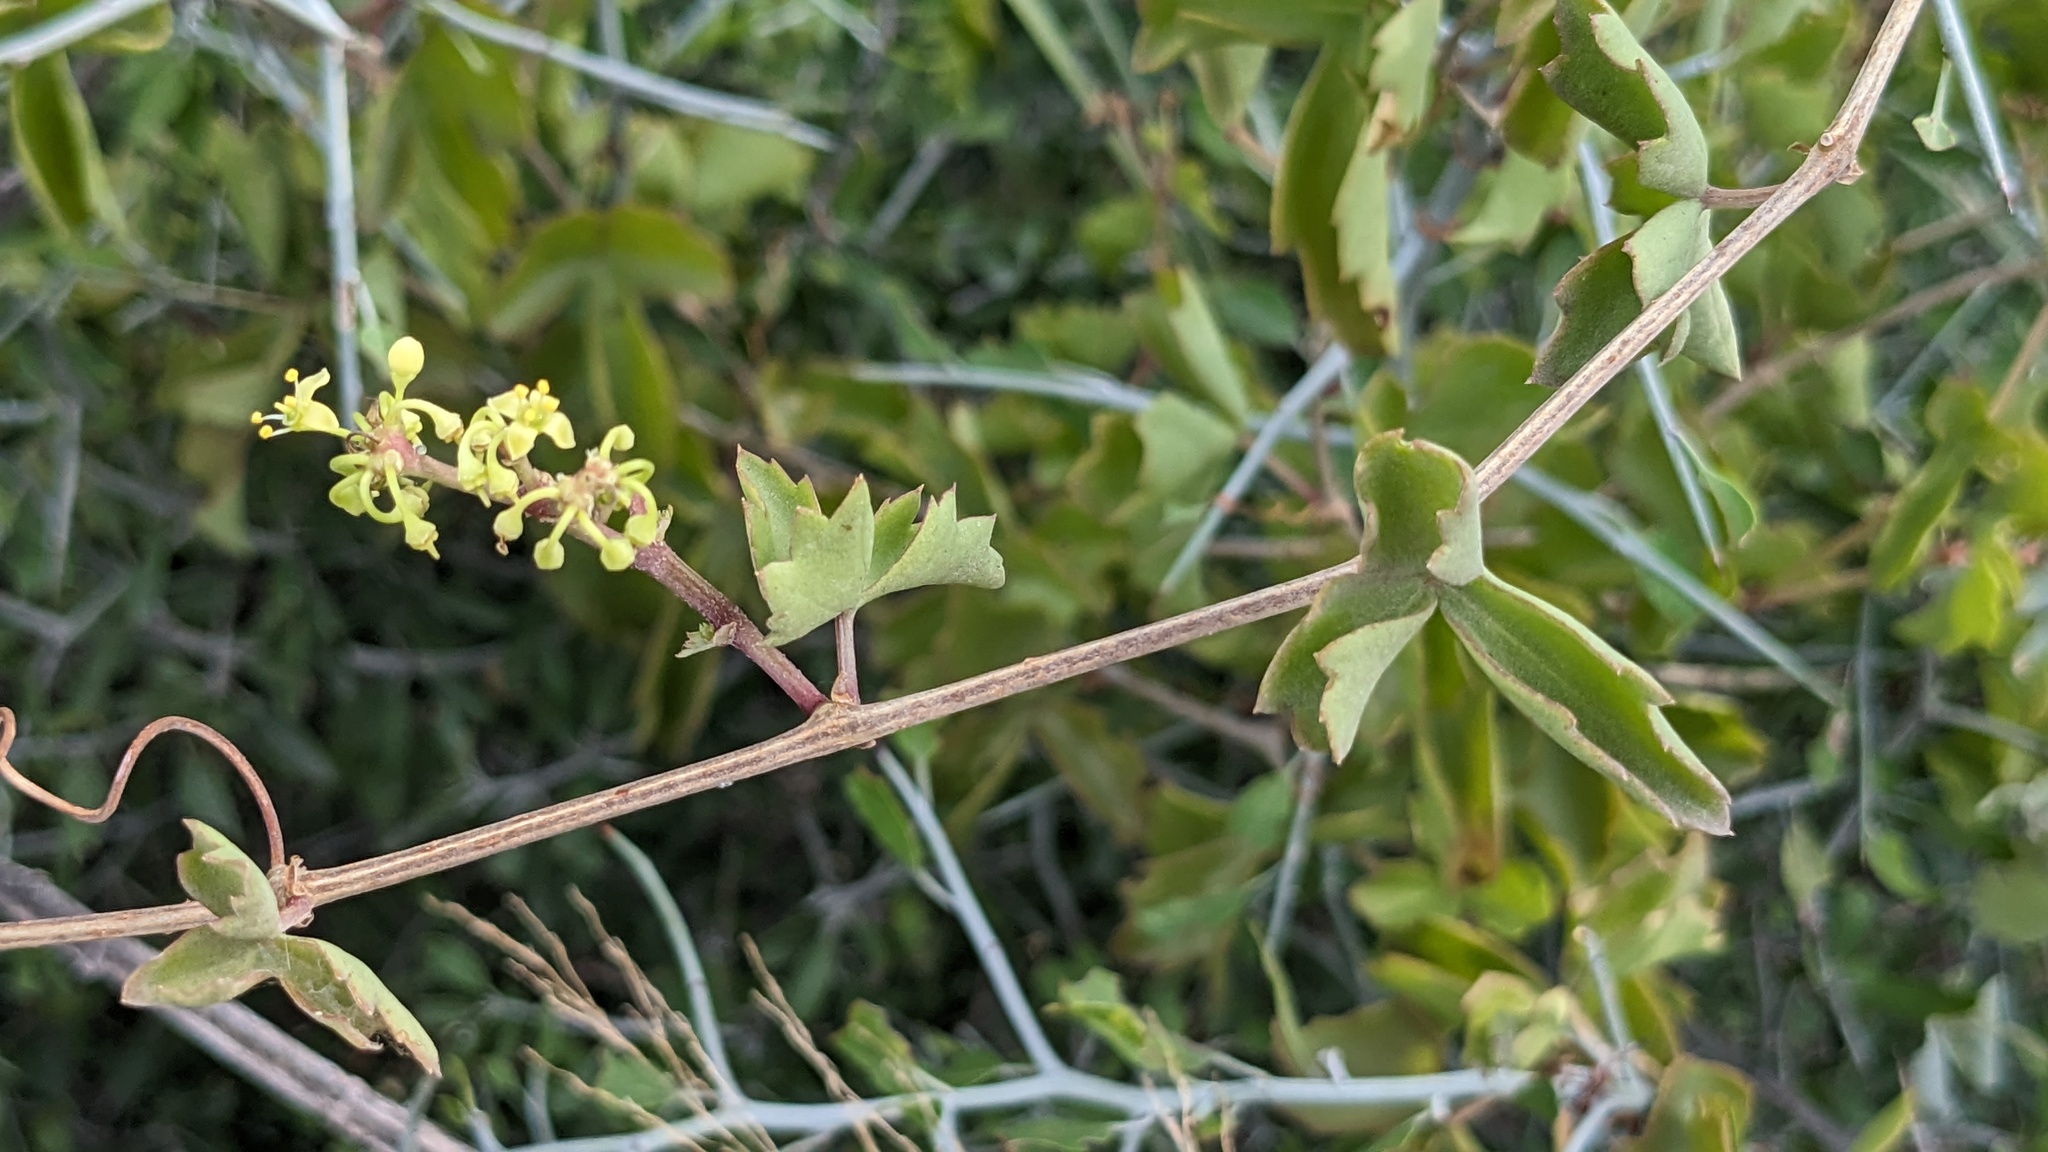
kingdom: Plantae
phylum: Tracheophyta
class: Magnoliopsida
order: Vitales
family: Vitaceae
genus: Cissus
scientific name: Cissus trifoliata
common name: Vine-sorrel
